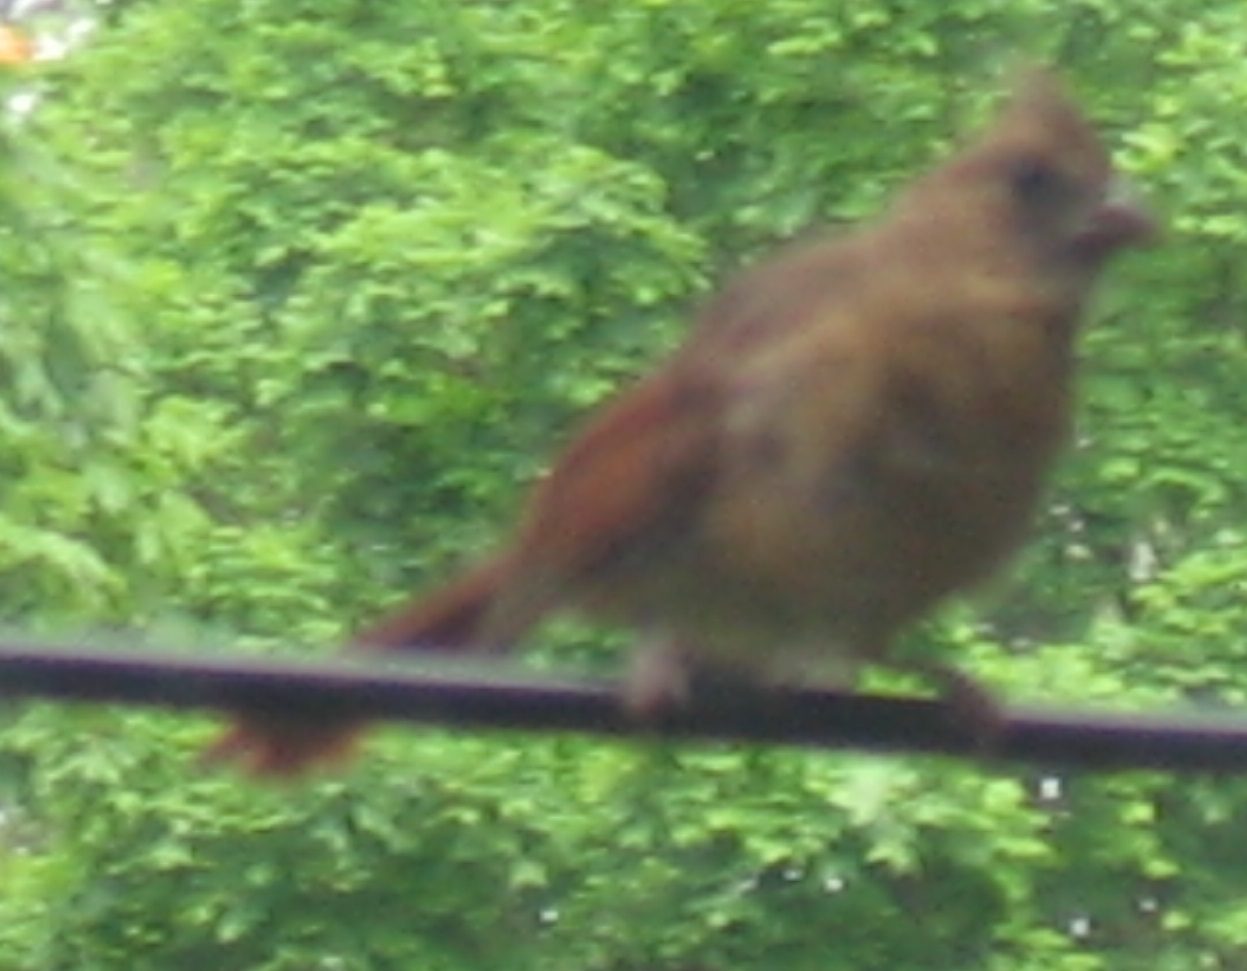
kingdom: Animalia
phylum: Chordata
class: Aves
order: Passeriformes
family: Cardinalidae
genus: Cardinalis
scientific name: Cardinalis cardinalis
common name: Northern cardinal
